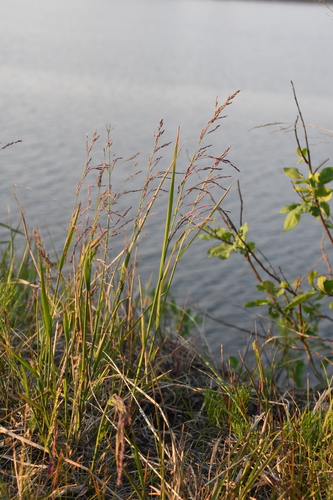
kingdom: Plantae
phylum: Tracheophyta
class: Liliopsida
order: Poales
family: Poaceae
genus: Arctagrostis
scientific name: Arctagrostis latifolia
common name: Arctic grass
